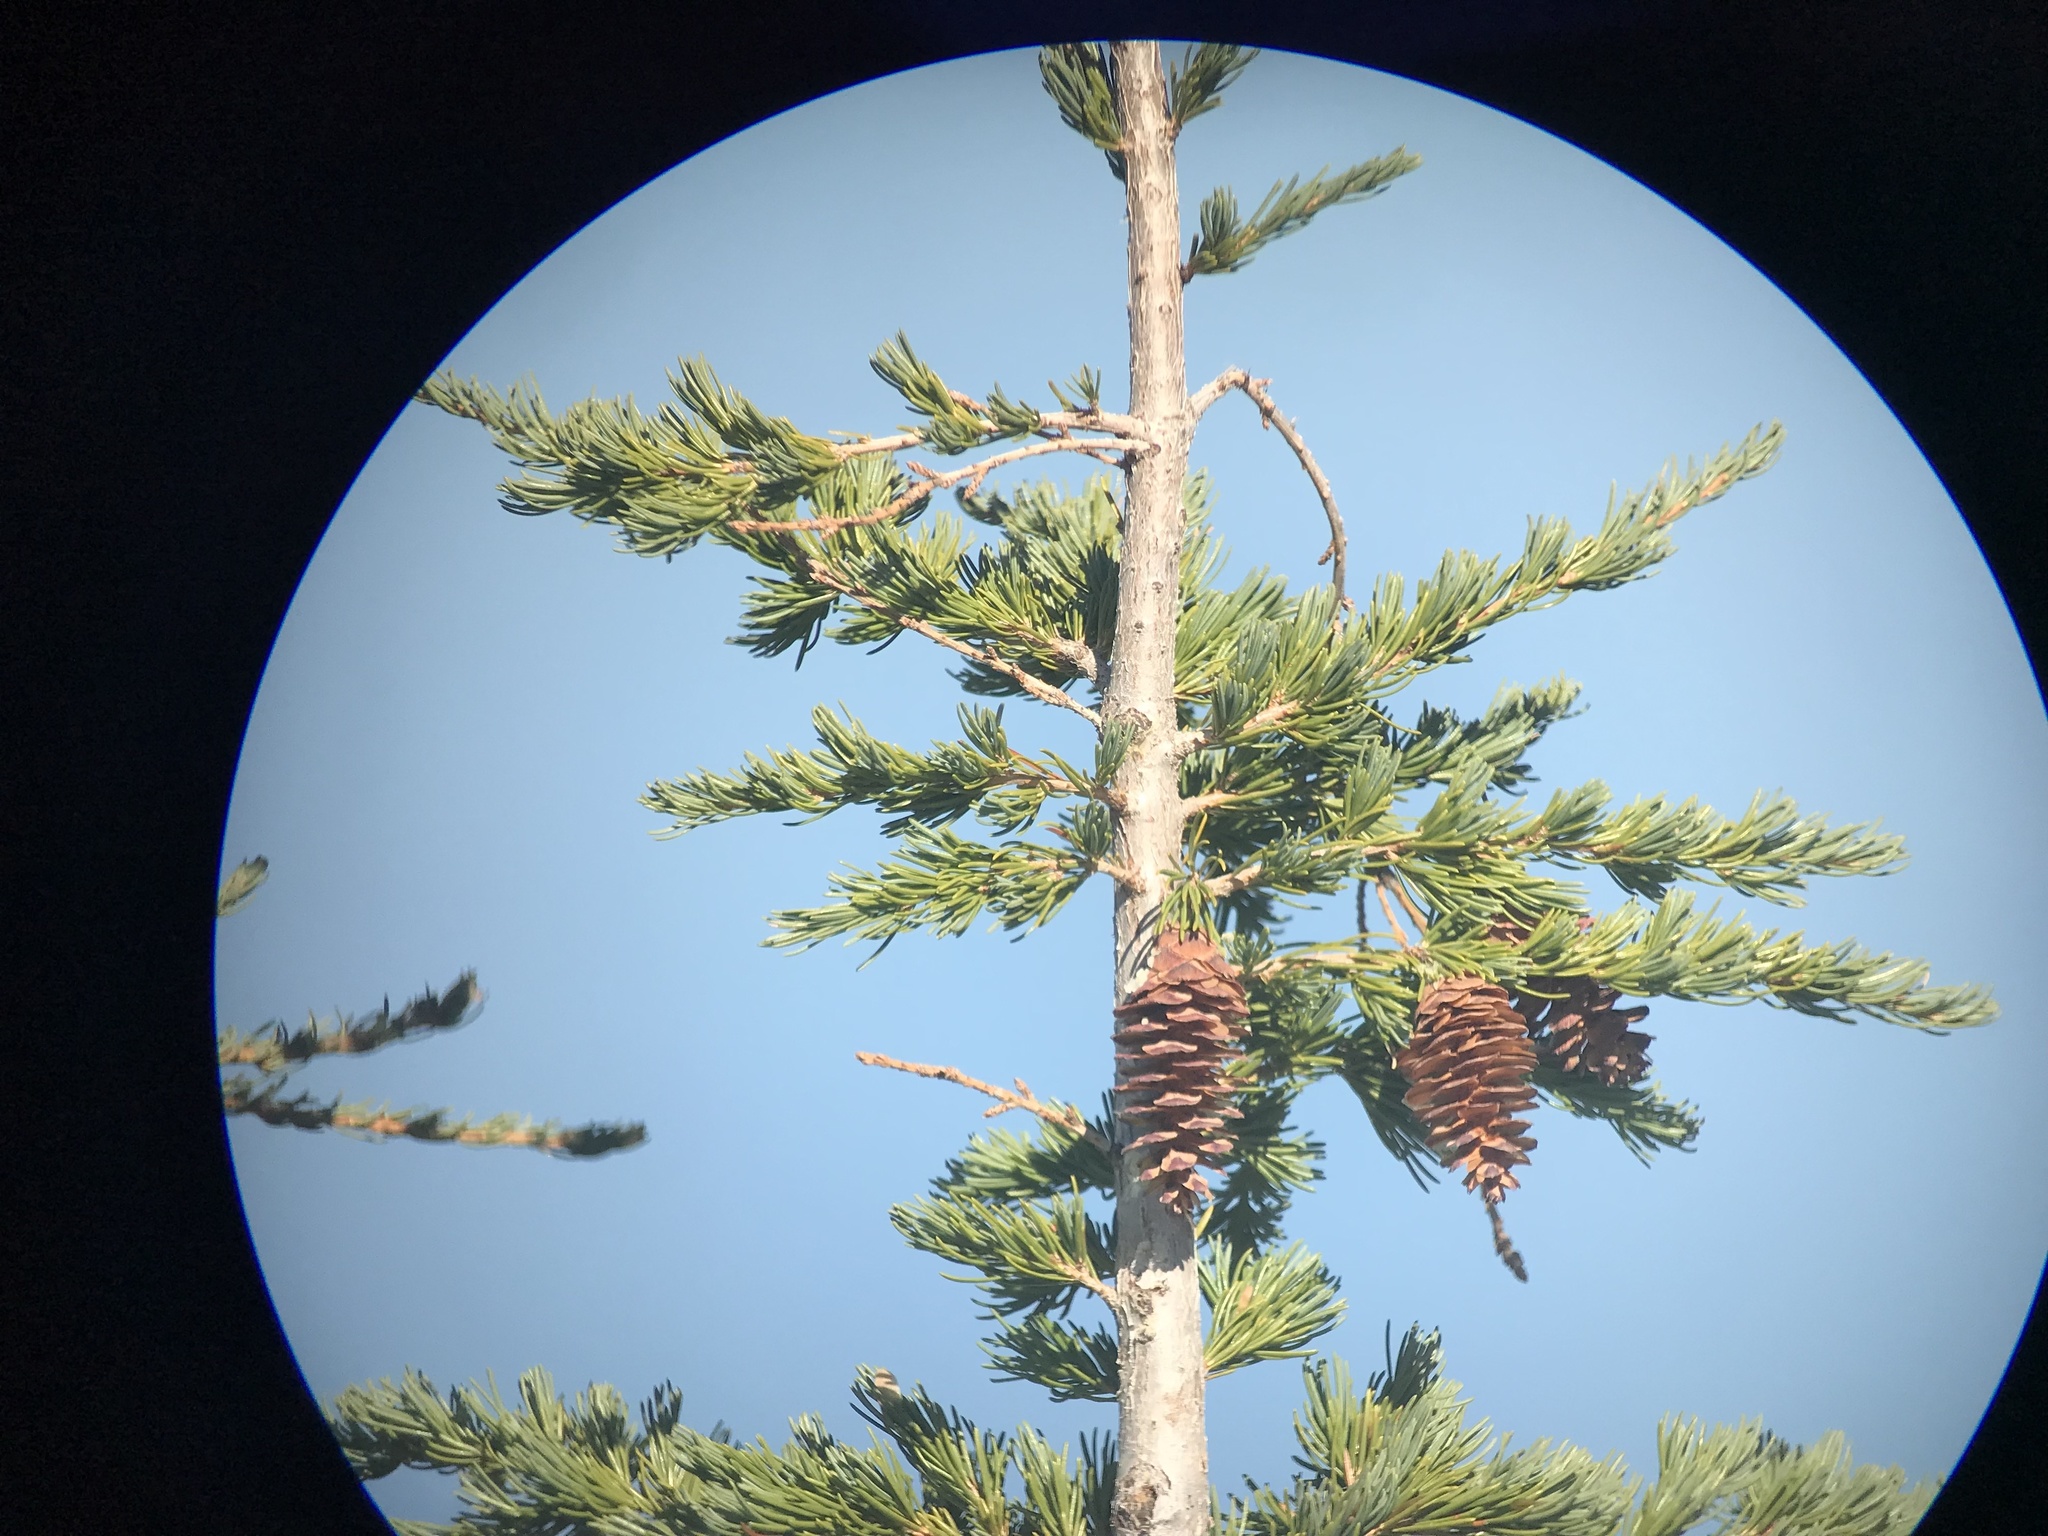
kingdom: Plantae
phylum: Tracheophyta
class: Pinopsida
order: Pinales
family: Pinaceae
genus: Tsuga
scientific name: Tsuga mertensiana
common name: Mountain hemlock
